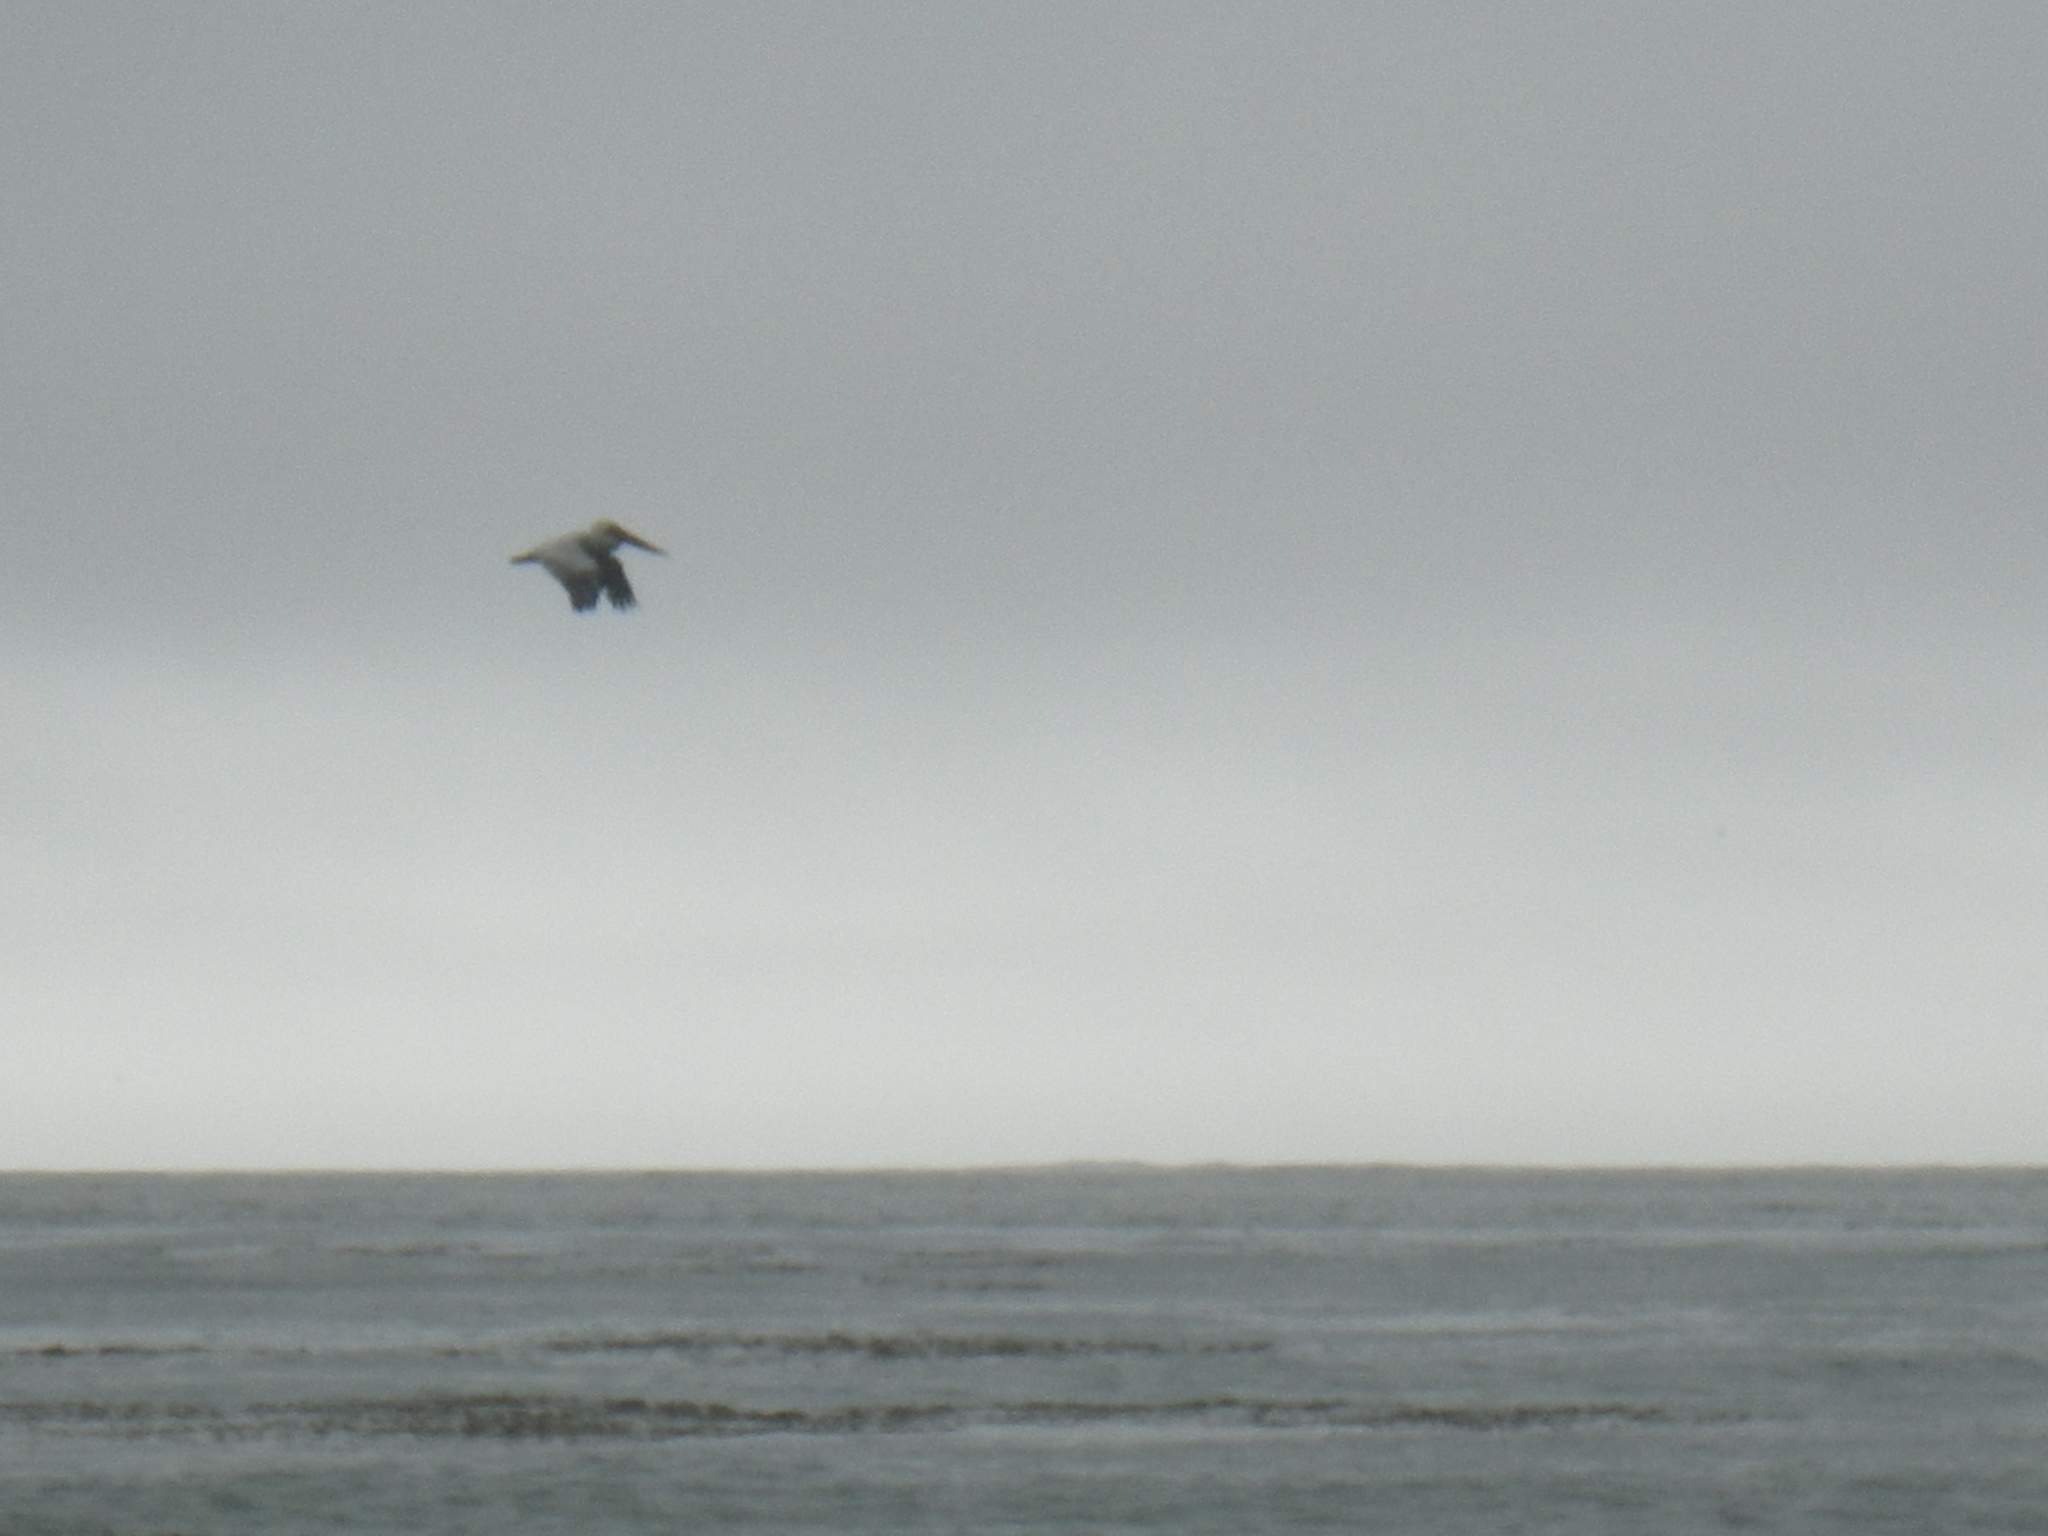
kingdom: Animalia
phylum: Chordata
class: Aves
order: Pelecaniformes
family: Pelecanidae
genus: Pelecanus
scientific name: Pelecanus occidentalis
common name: Brown pelican
